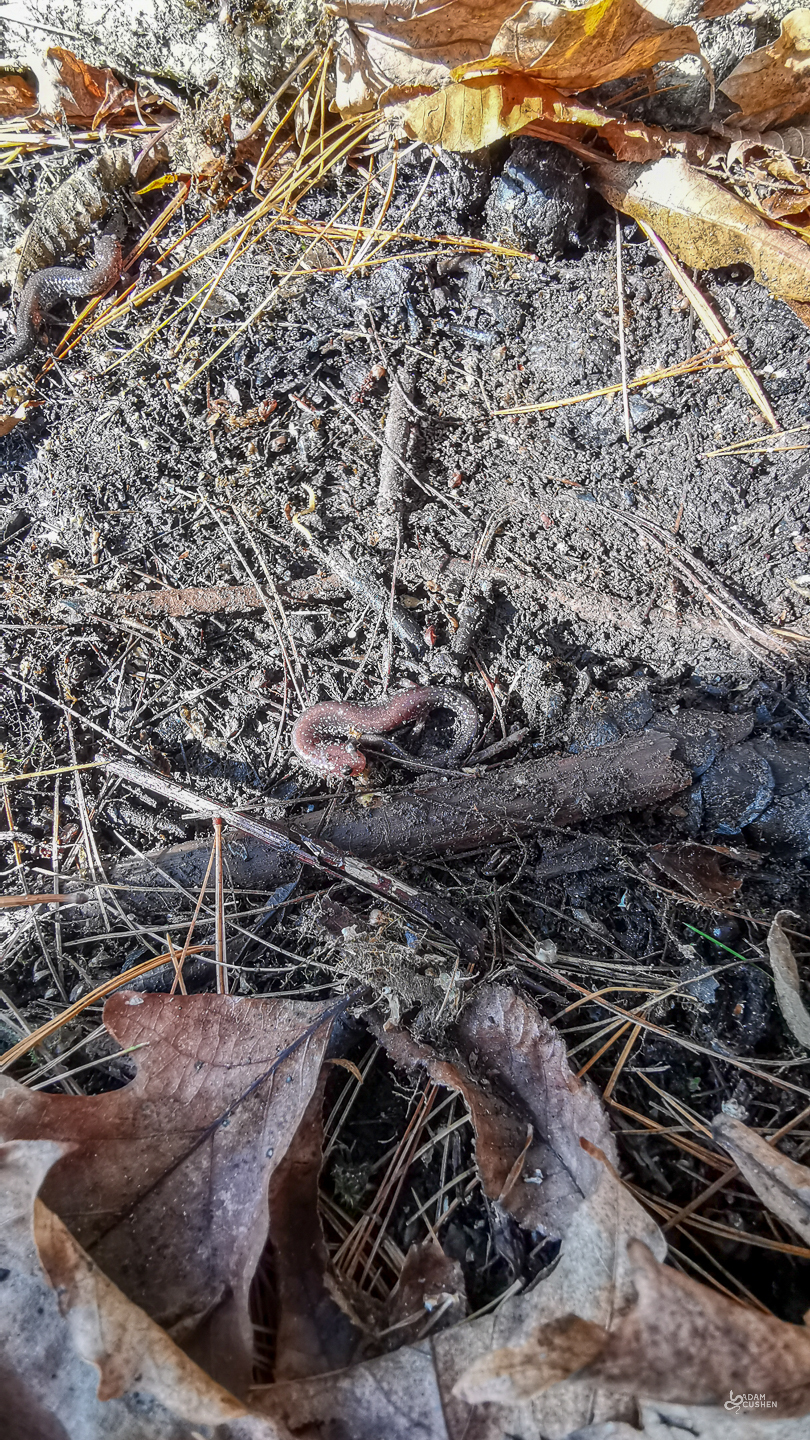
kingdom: Animalia
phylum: Chordata
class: Amphibia
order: Caudata
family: Plethodontidae
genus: Plethodon
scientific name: Plethodon cinereus
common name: Redback salamander
